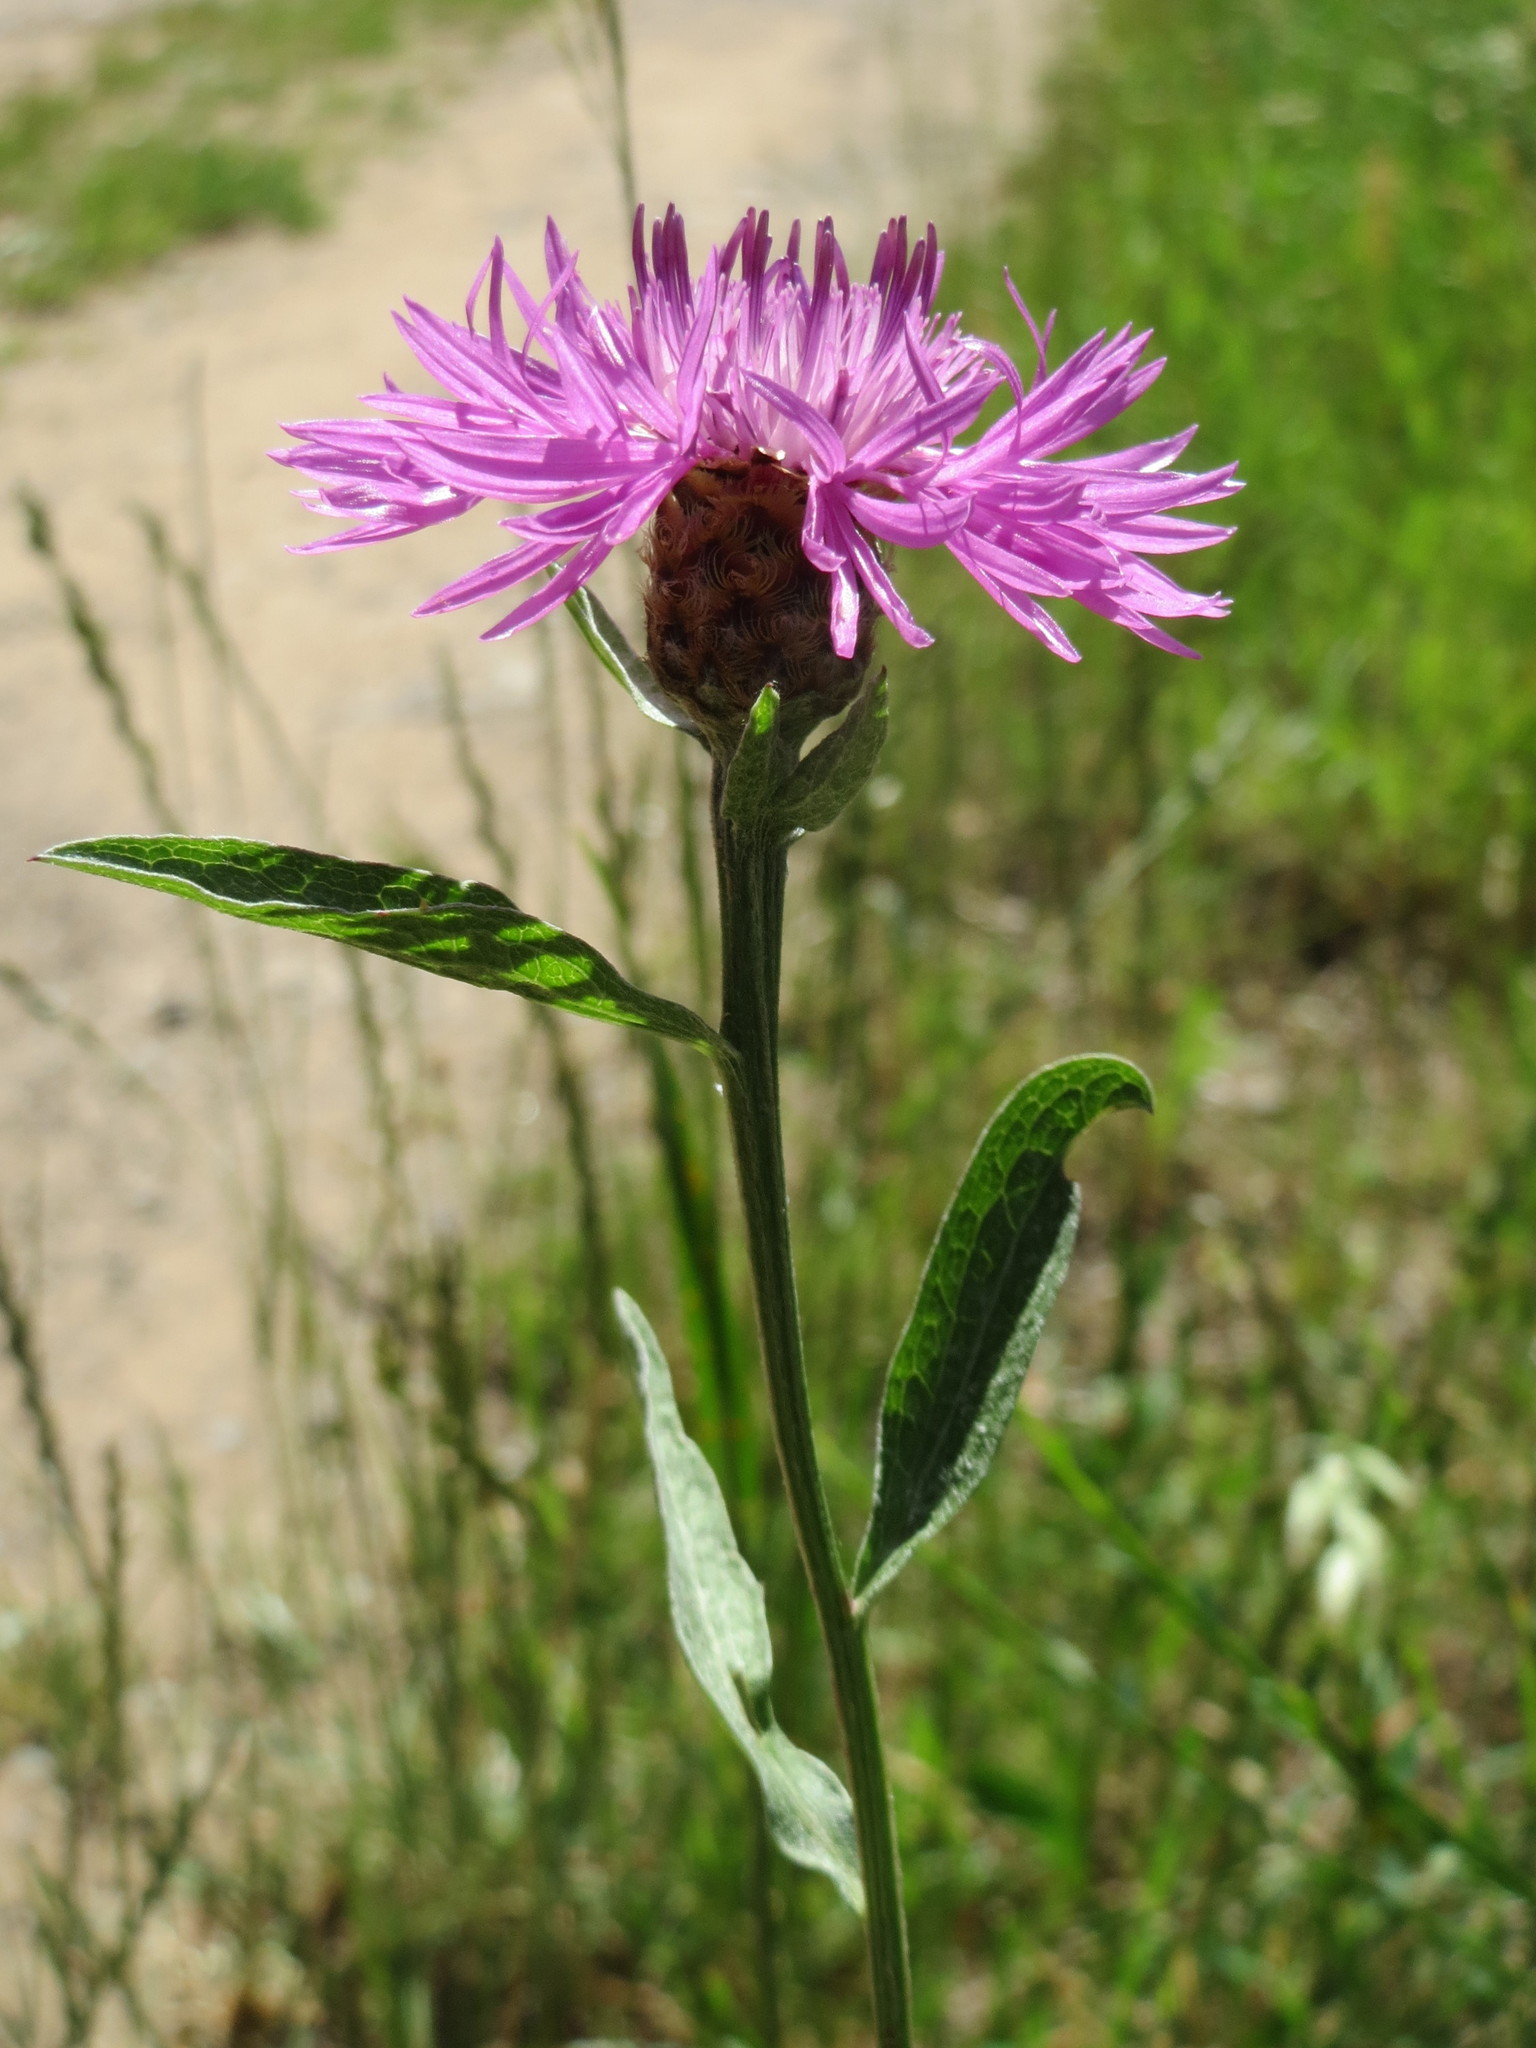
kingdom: Plantae
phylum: Tracheophyta
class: Magnoliopsida
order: Asterales
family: Asteraceae
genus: Centaurea
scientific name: Centaurea jacea
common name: Brown knapweed
